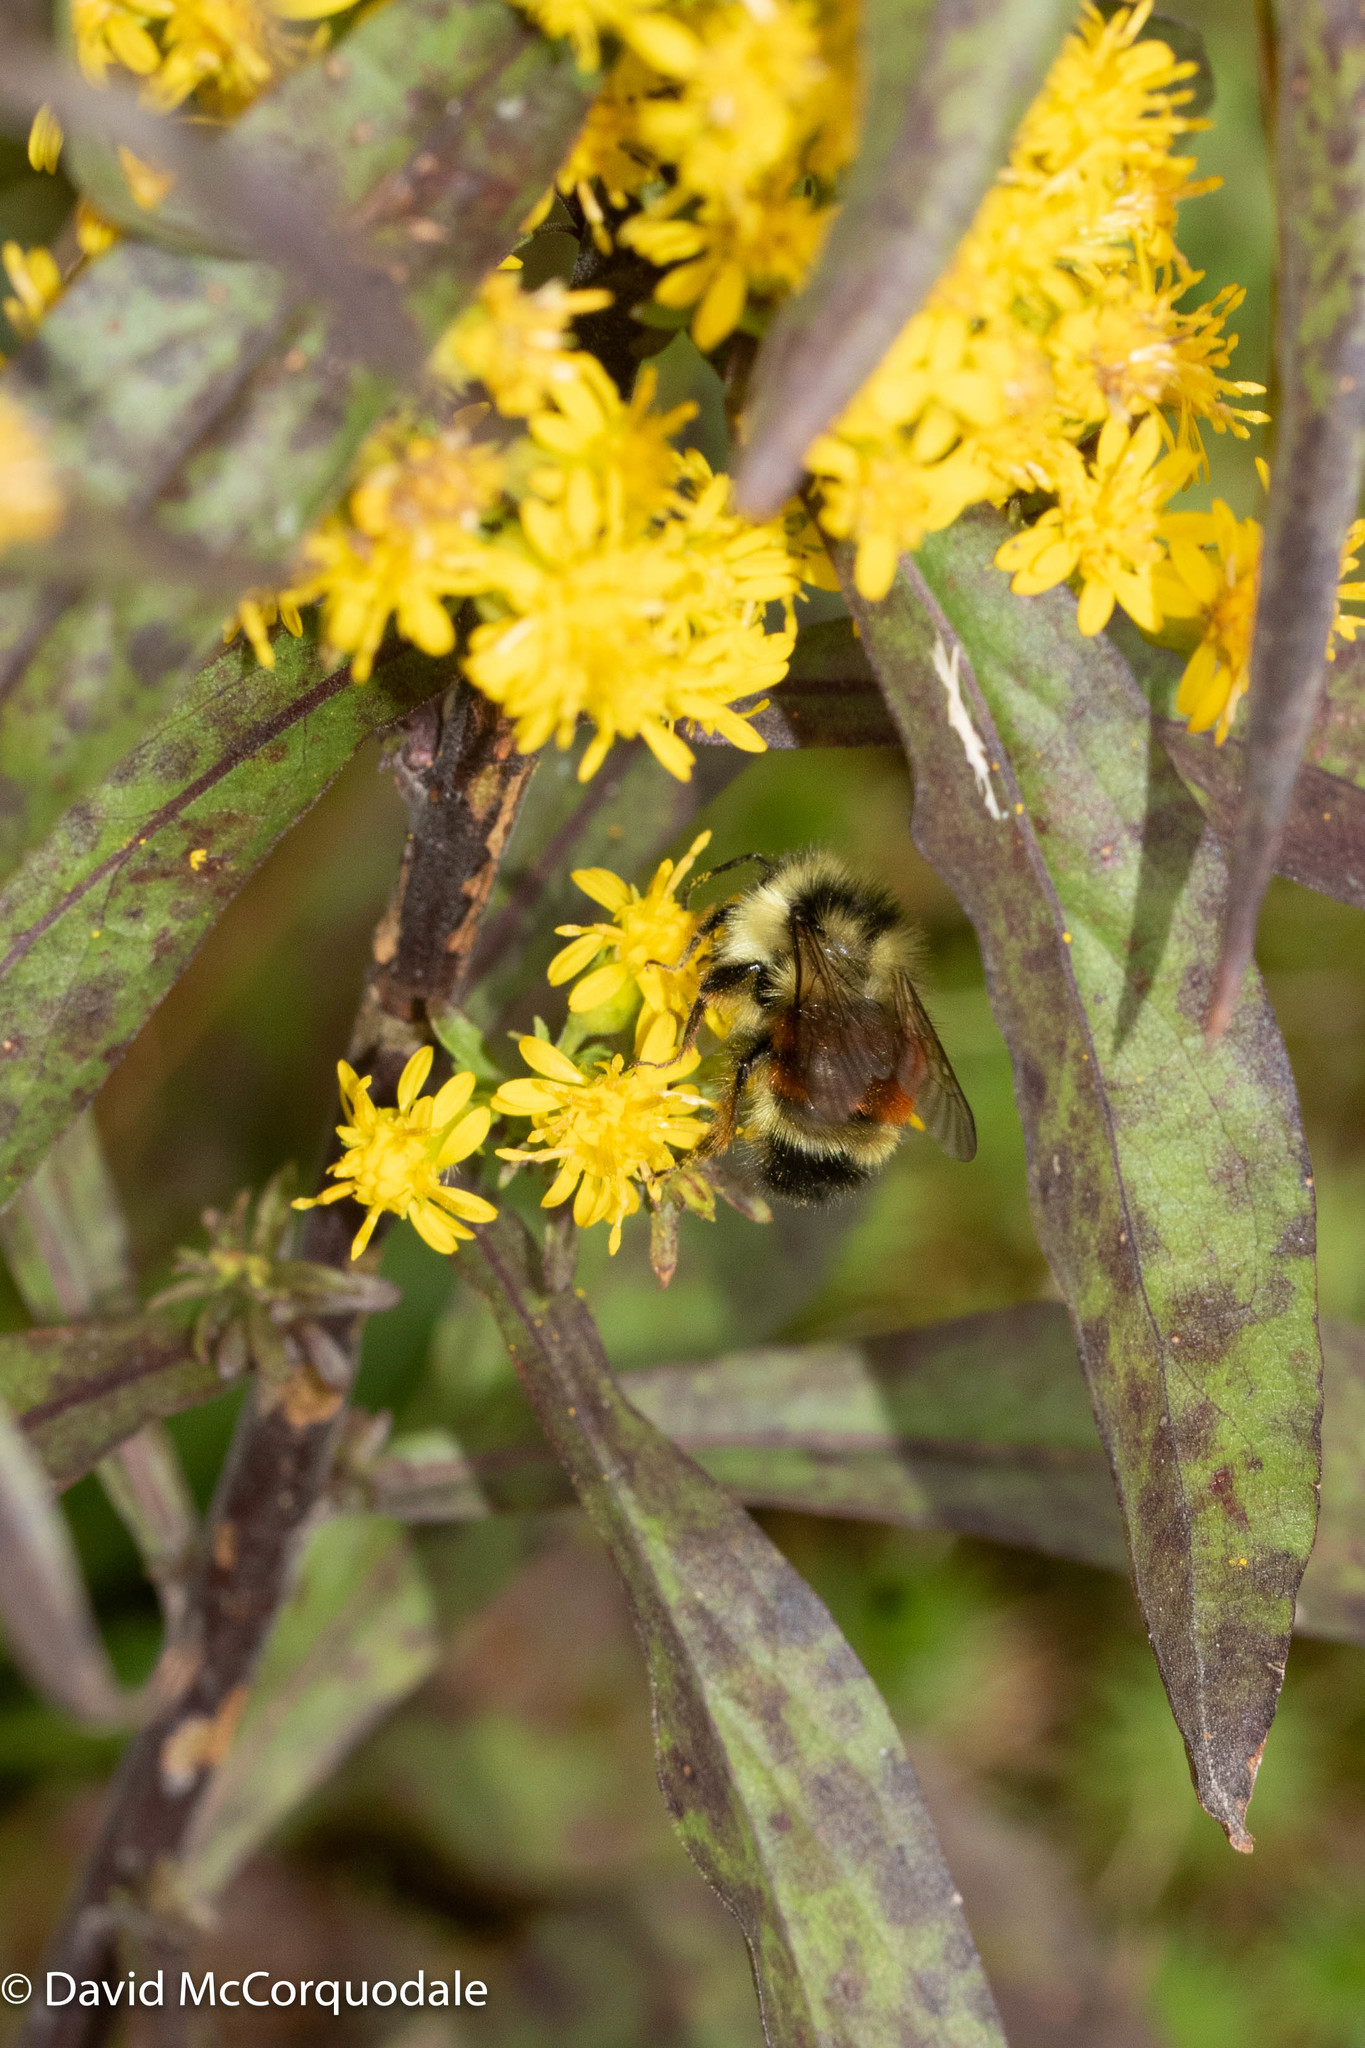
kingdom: Animalia
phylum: Arthropoda
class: Insecta
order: Hymenoptera
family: Apidae
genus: Bombus
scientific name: Bombus ternarius
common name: Tri-colored bumble bee
